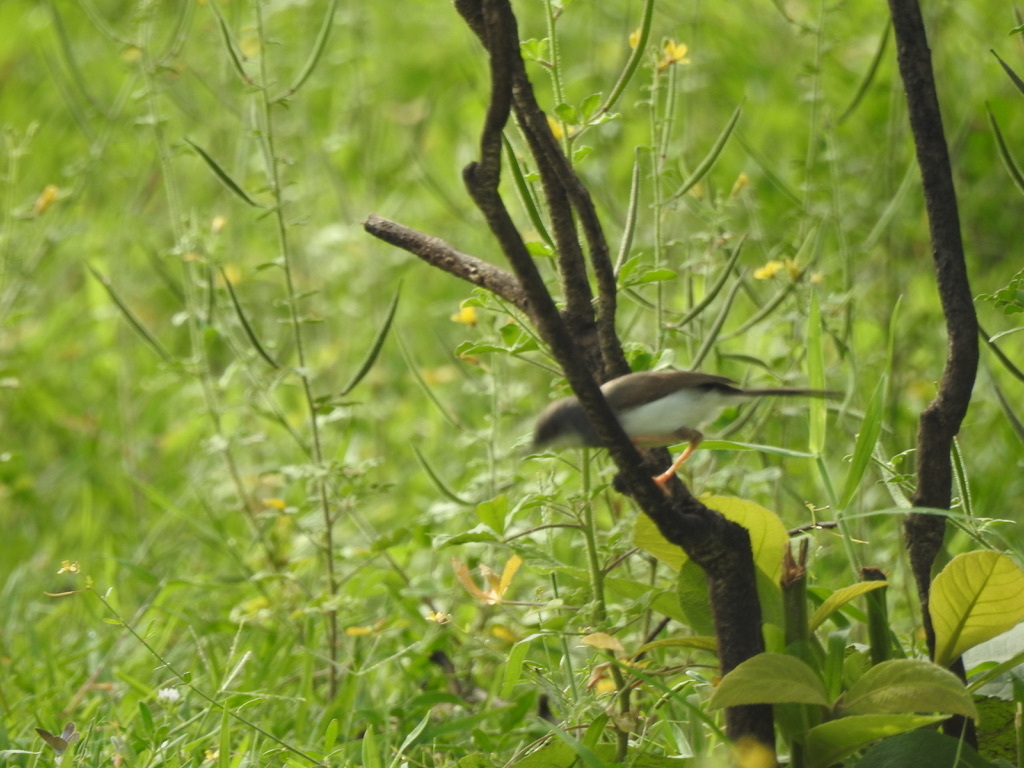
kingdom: Animalia
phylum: Chordata
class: Aves
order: Passeriformes
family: Cisticolidae
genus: Prinia
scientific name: Prinia hodgsonii
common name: Grey-breasted prinia
